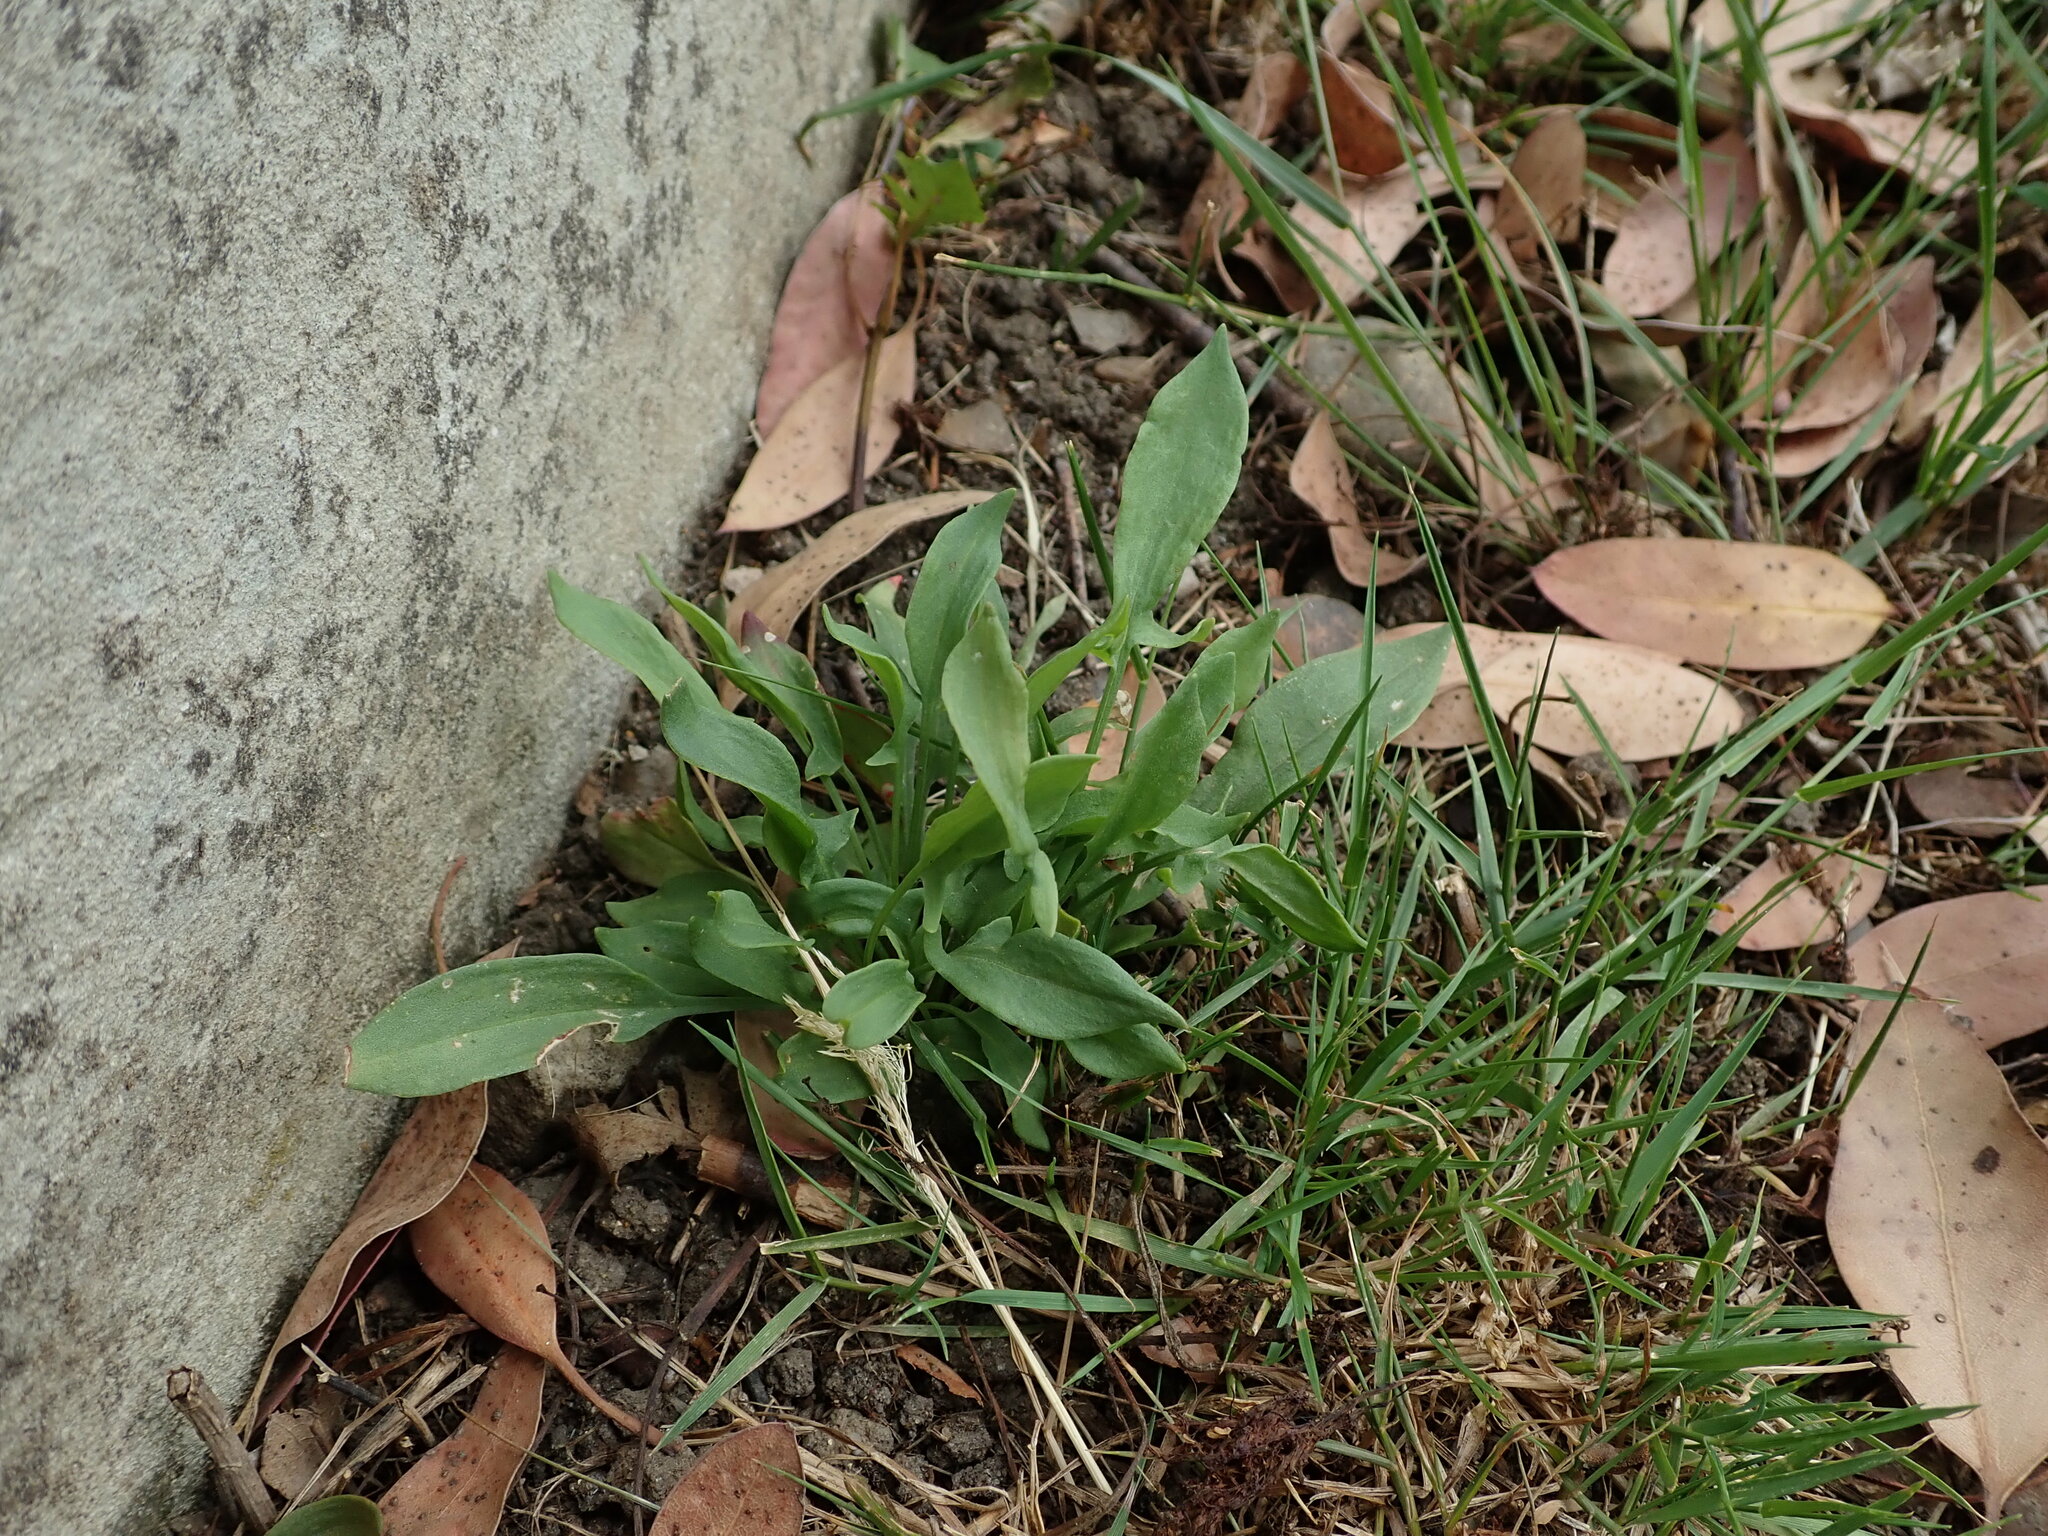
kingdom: Plantae
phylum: Tracheophyta
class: Magnoliopsida
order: Caryophyllales
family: Polygonaceae
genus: Rumex
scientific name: Rumex acetosella
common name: Common sheep sorrel
